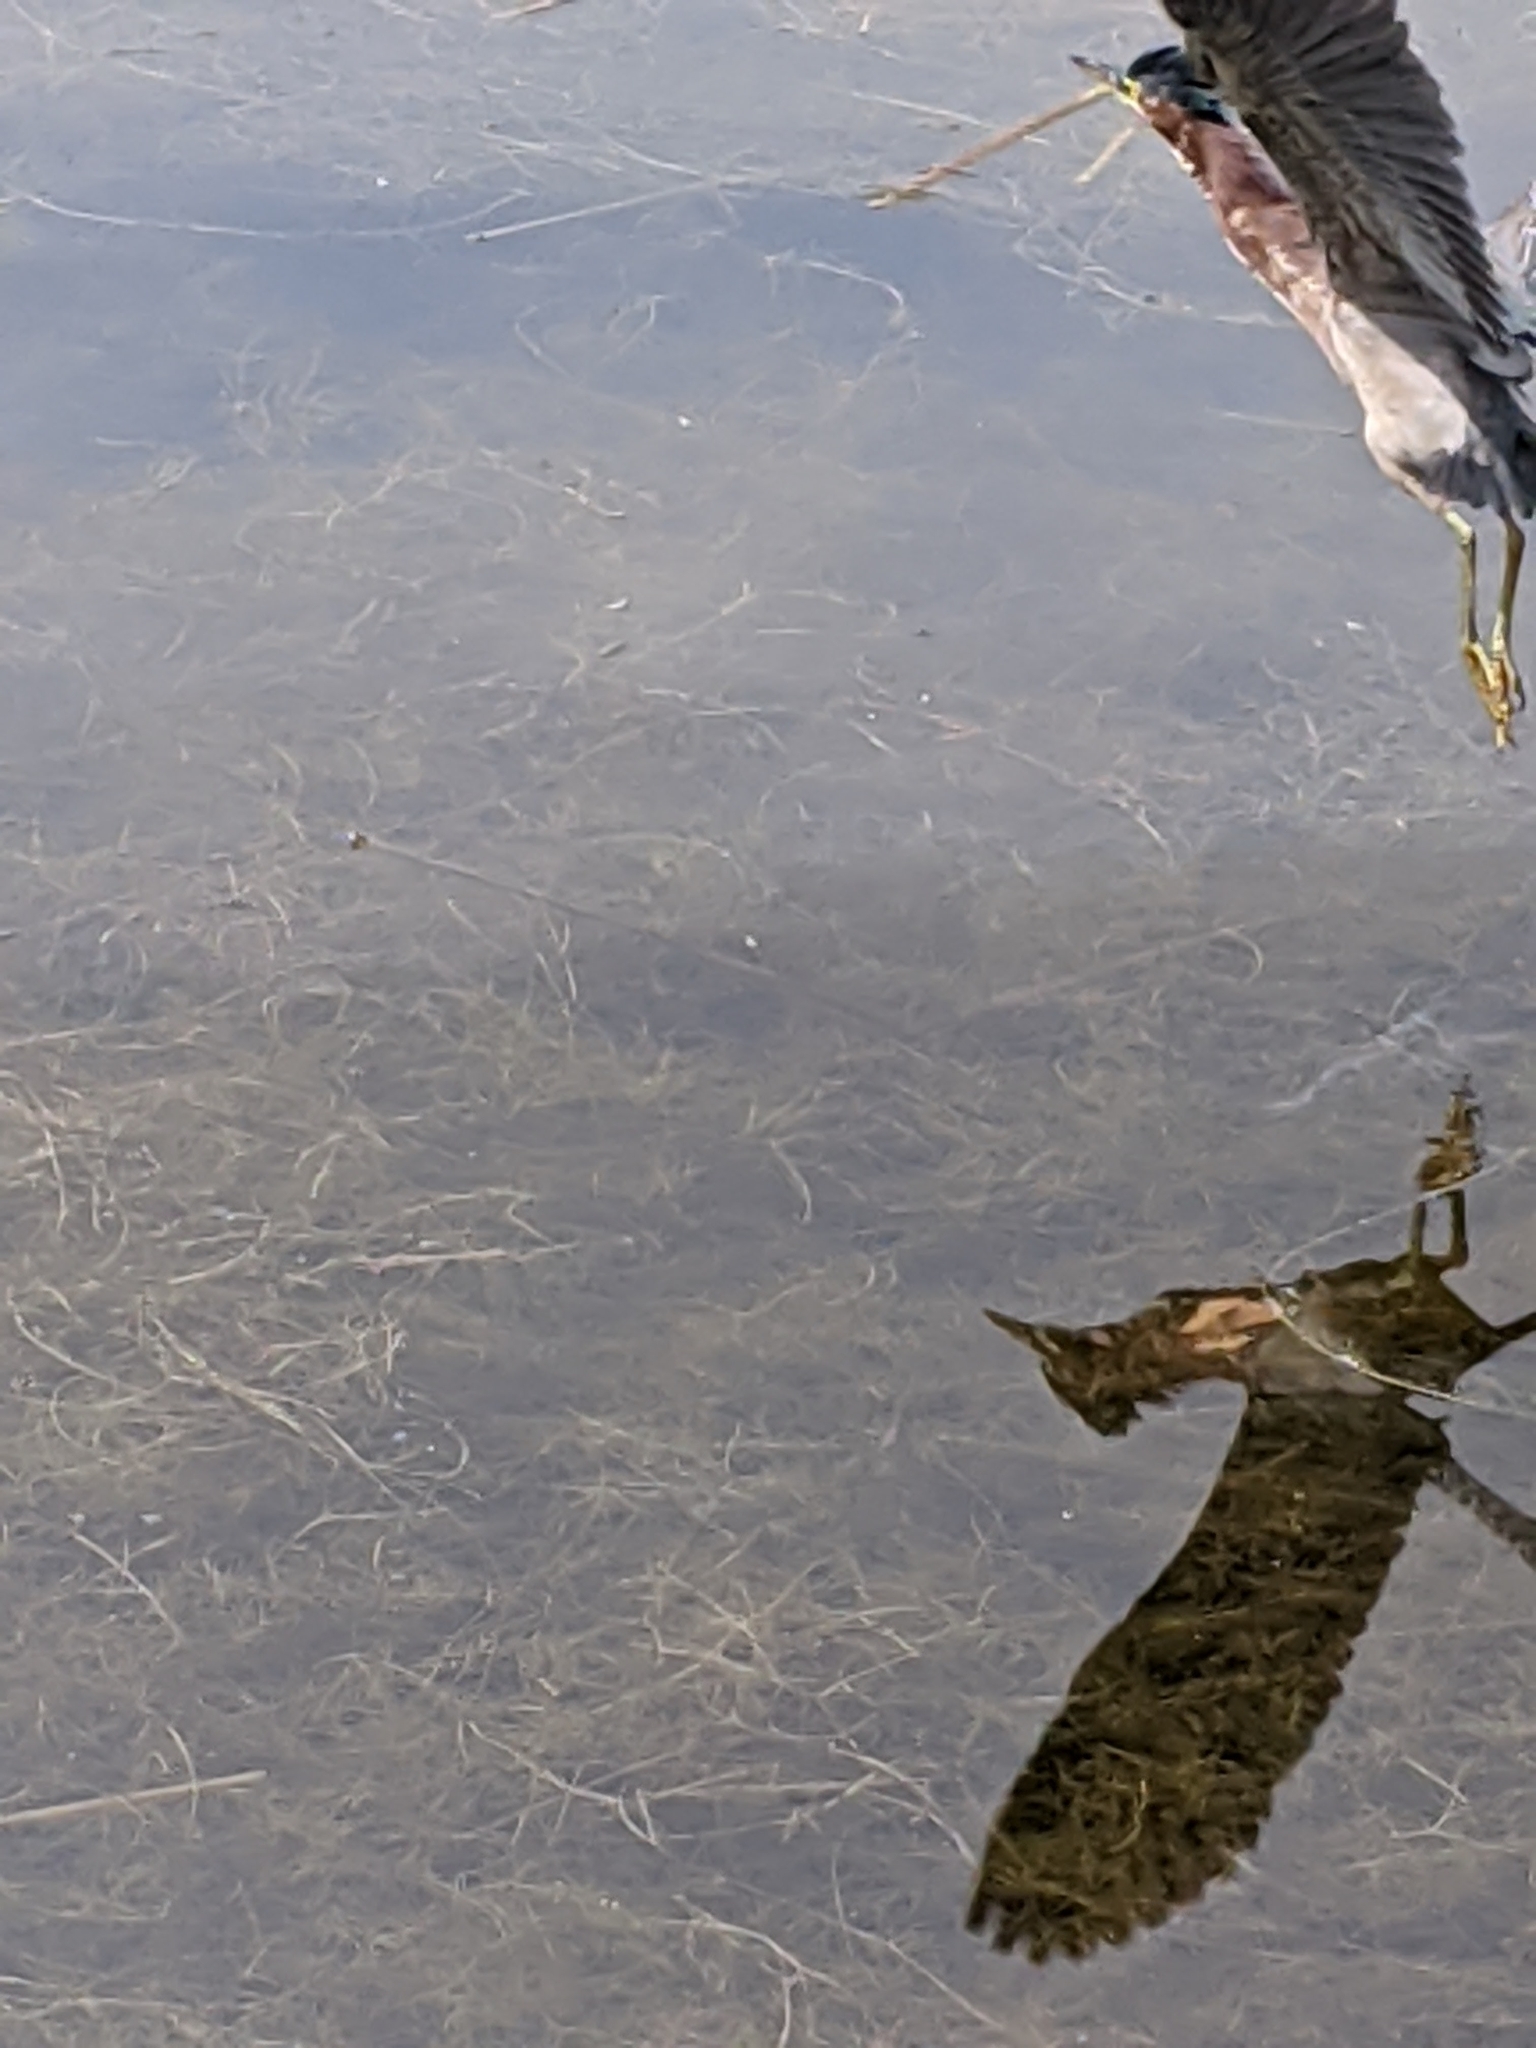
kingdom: Animalia
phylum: Chordata
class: Aves
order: Pelecaniformes
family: Ardeidae
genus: Butorides
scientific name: Butorides virescens
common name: Green heron
